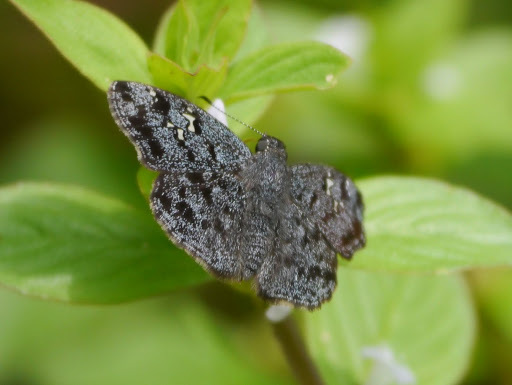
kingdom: Animalia
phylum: Arthropoda
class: Insecta
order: Lepidoptera
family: Hesperiidae
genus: Sarangesa
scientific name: Sarangesa tertullianus
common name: Blue-dusted elfin
